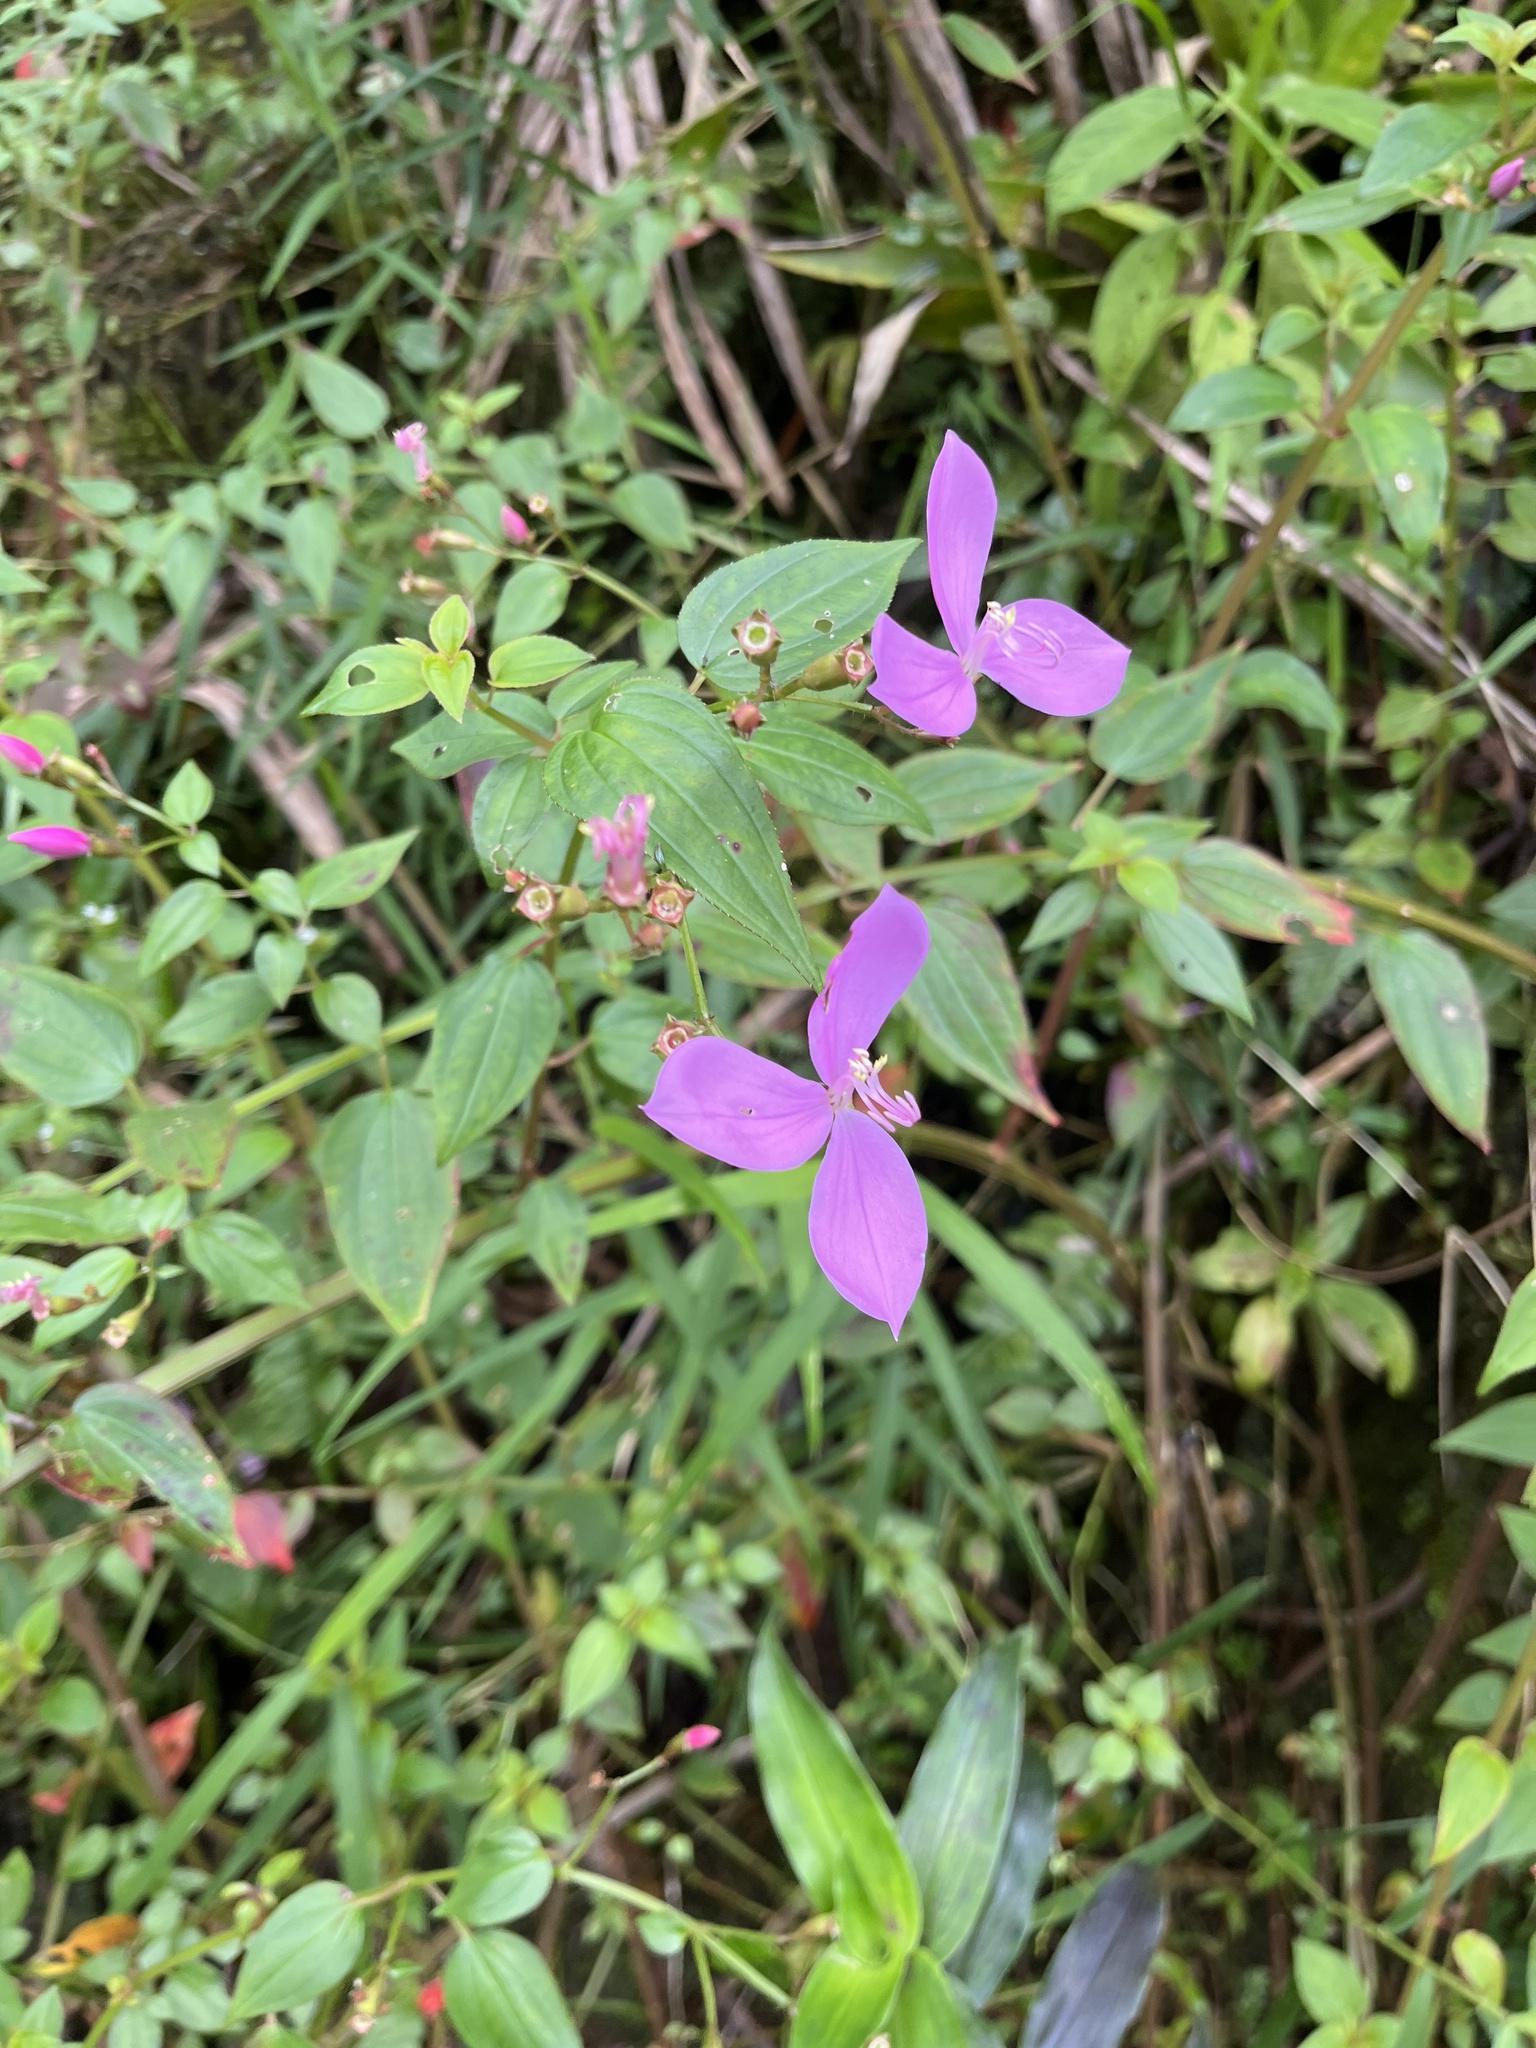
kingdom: Plantae
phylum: Tracheophyta
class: Magnoliopsida
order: Myrtales
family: Melastomataceae
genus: Arthrostemma
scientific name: Arthrostemma ciliatum
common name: Everblooming eavender
